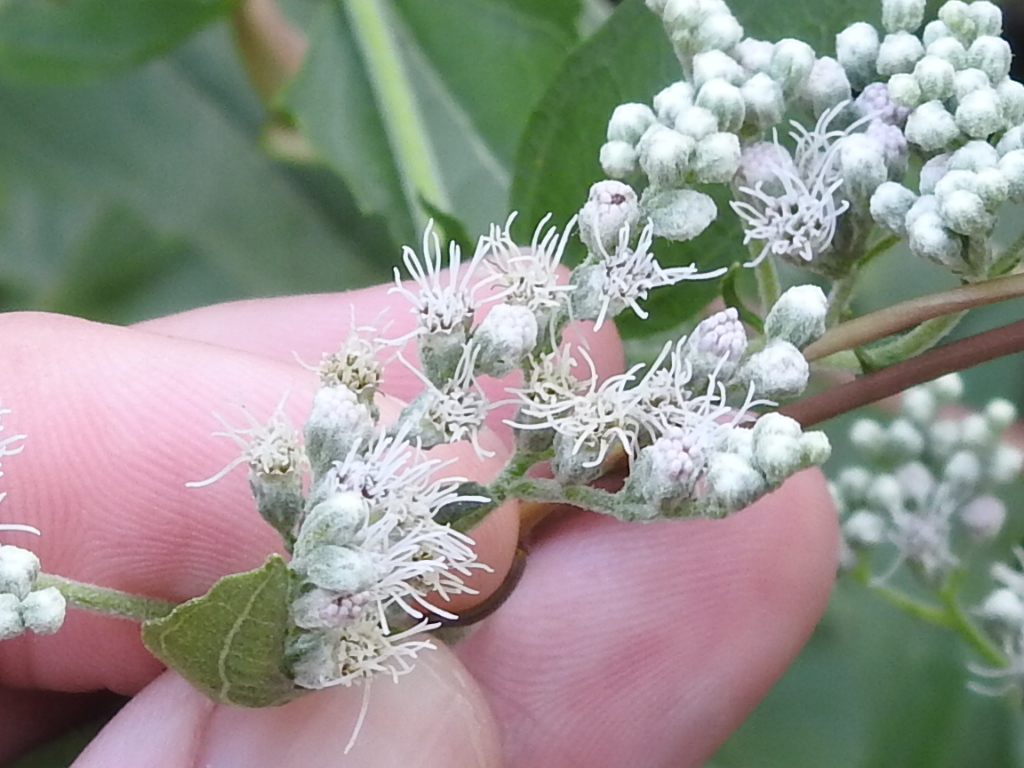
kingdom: Plantae
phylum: Tracheophyta
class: Magnoliopsida
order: Asterales
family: Asteraceae
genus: Eupatorium
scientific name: Eupatorium serotinum
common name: Late boneset
